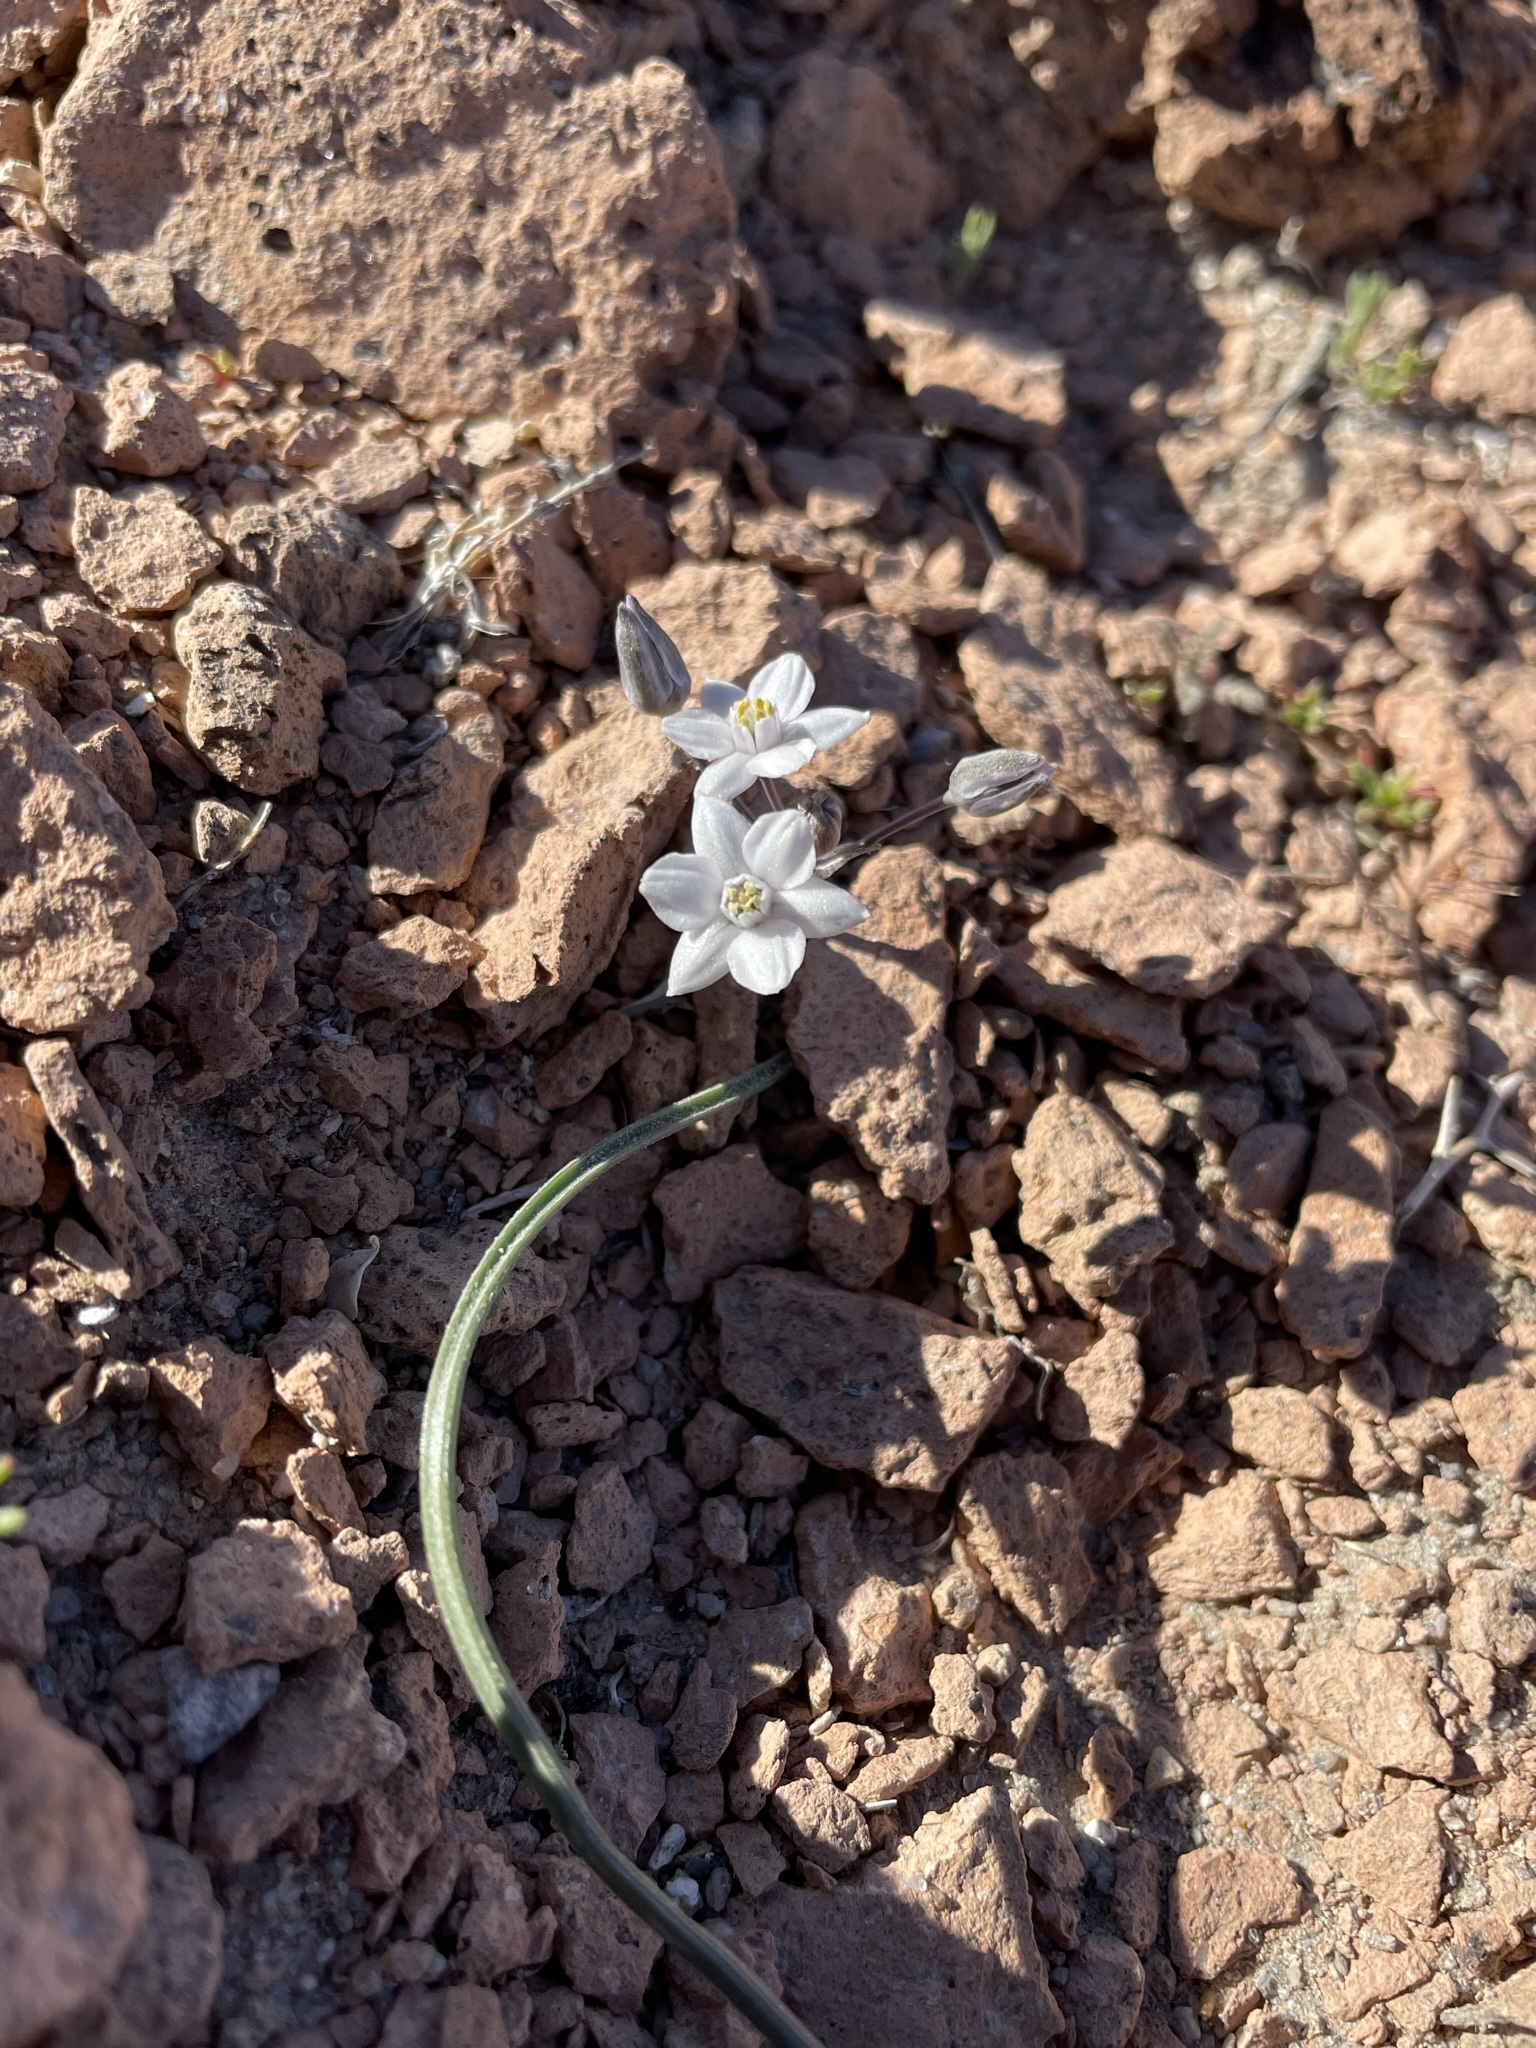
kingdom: Plantae
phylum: Tracheophyta
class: Liliopsida
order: Asparagales
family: Asparagaceae
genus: Muilla
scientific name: Muilla coronata
